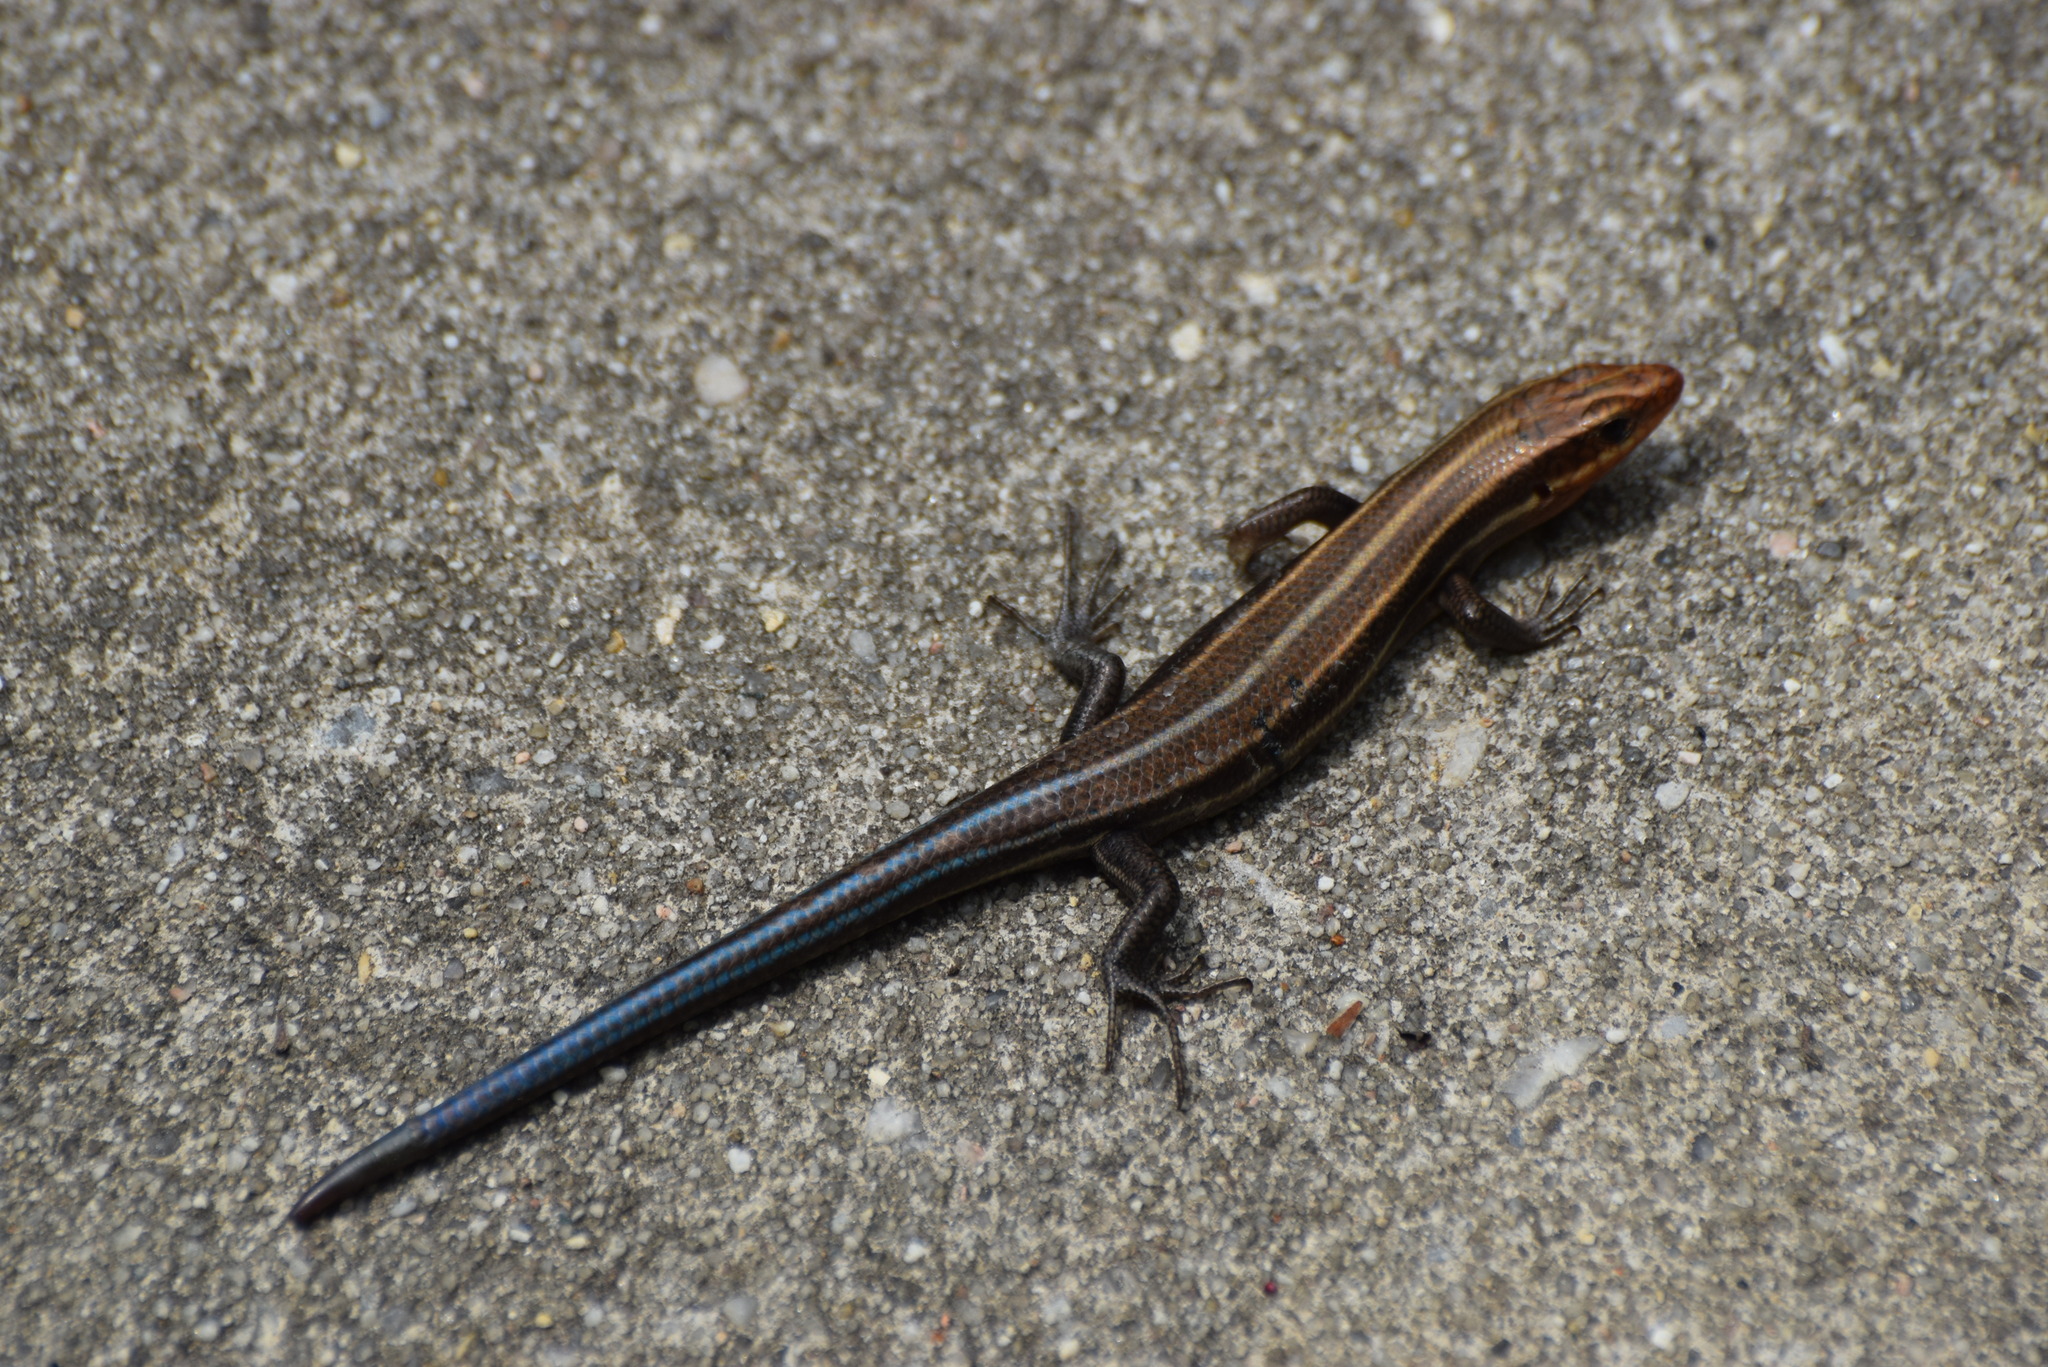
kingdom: Animalia
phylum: Chordata
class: Squamata
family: Scincidae
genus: Plestiodon
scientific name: Plestiodon fasciatus
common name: Five-lined skink
